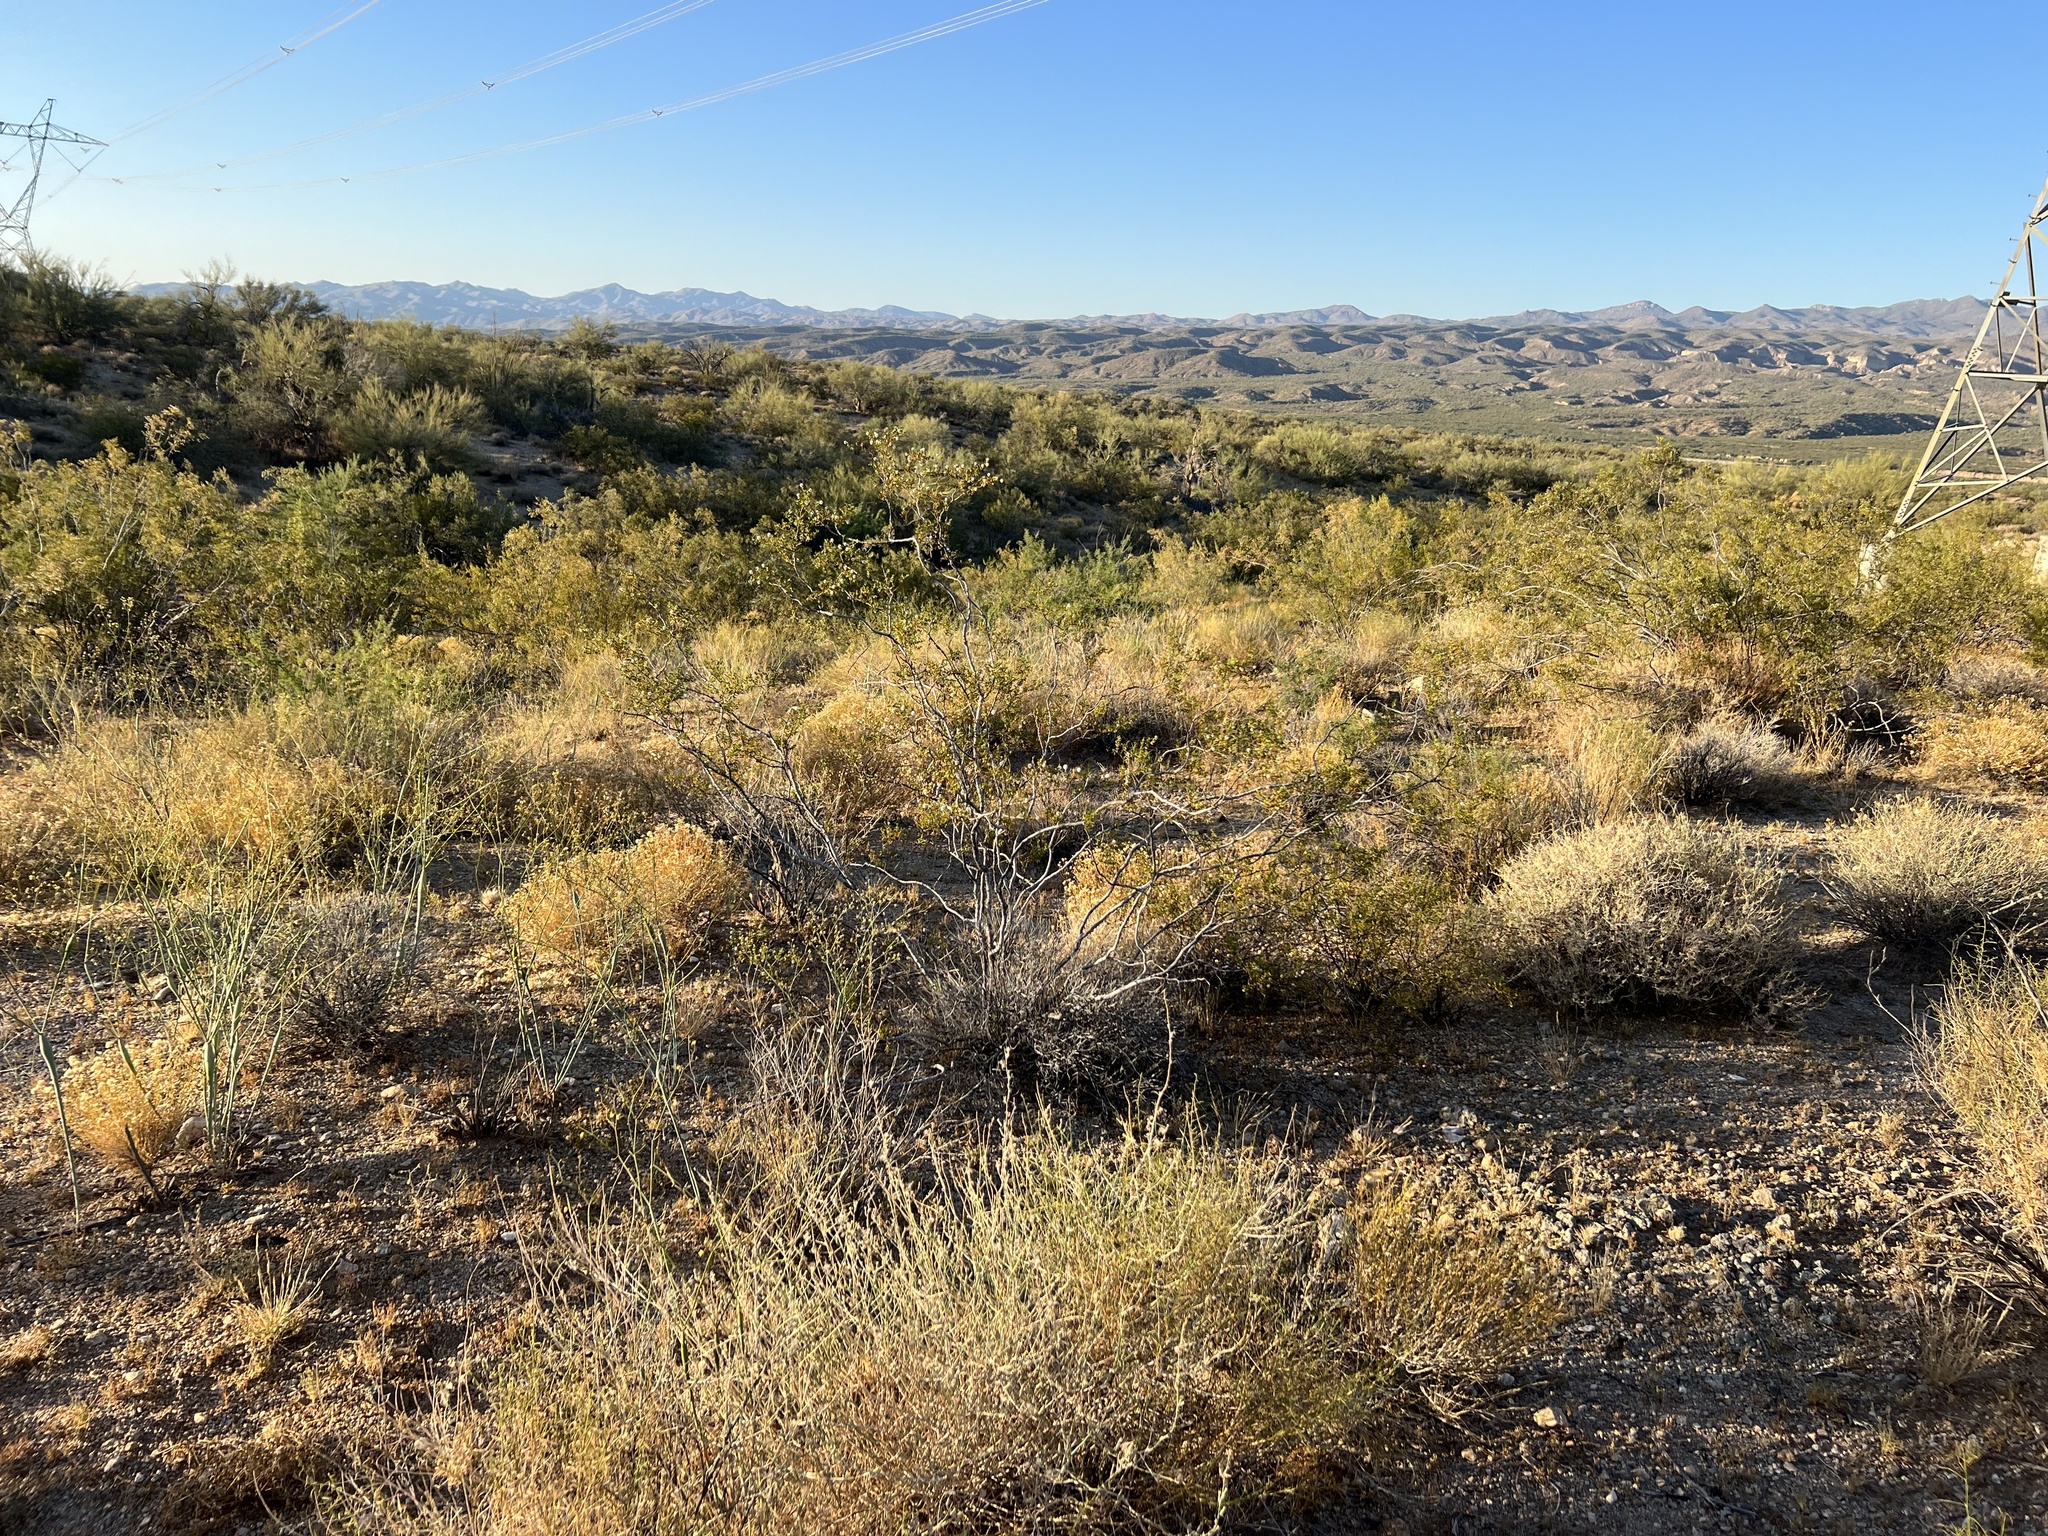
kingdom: Plantae
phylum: Tracheophyta
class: Magnoliopsida
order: Zygophyllales
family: Zygophyllaceae
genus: Larrea
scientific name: Larrea tridentata
